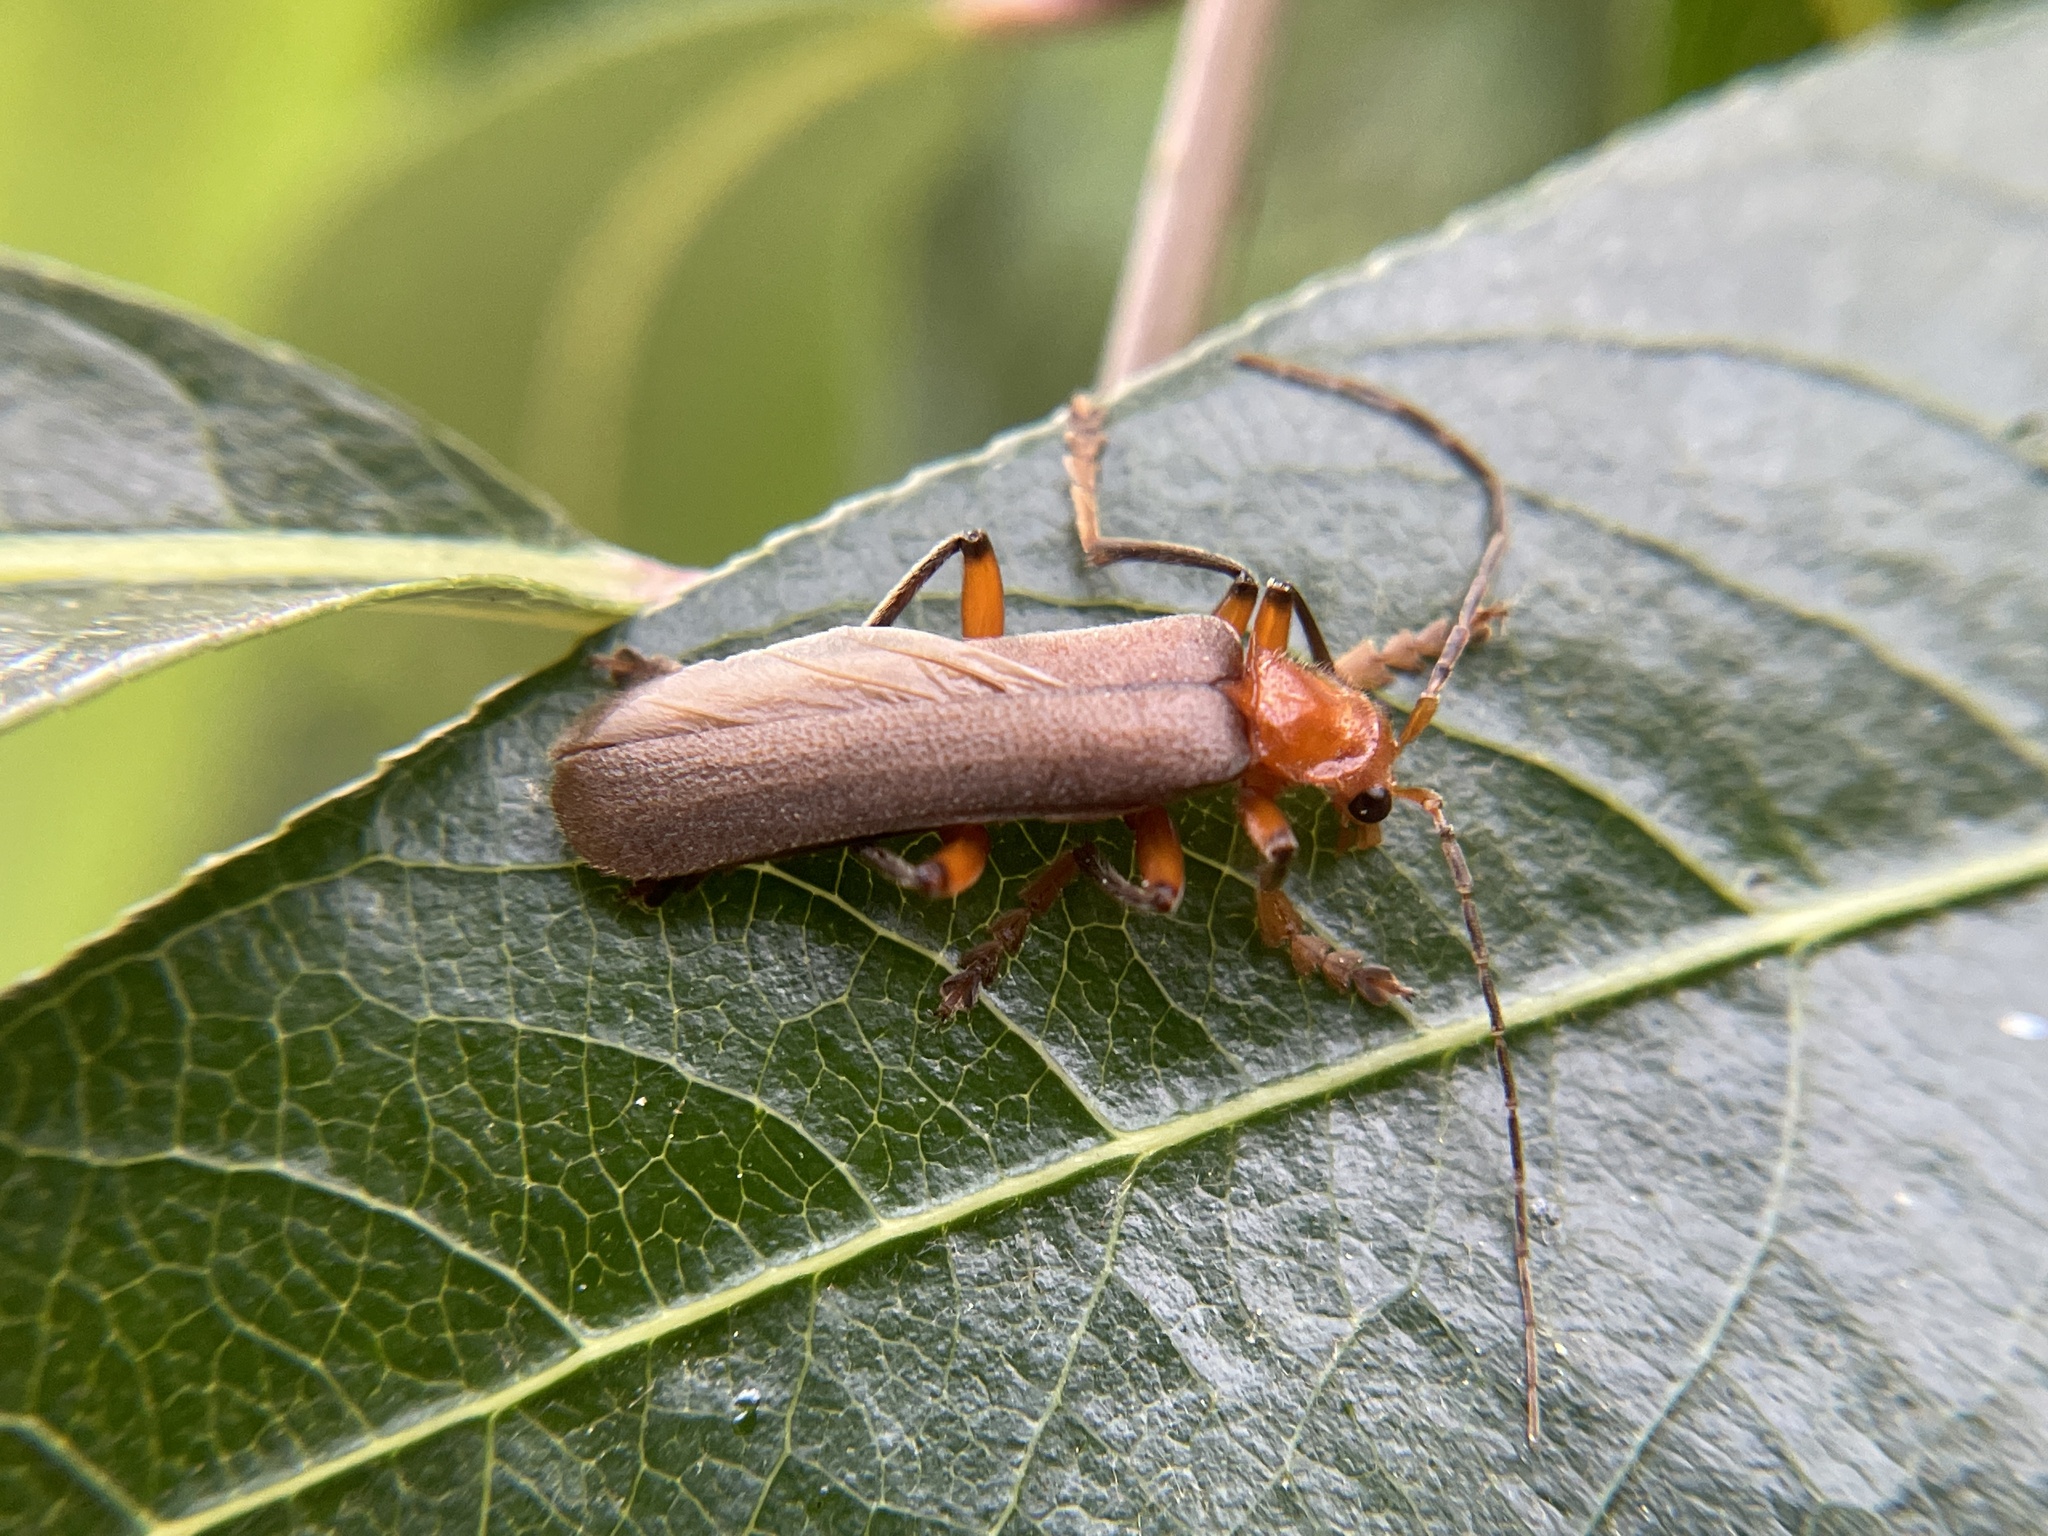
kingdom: Animalia
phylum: Arthropoda
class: Insecta
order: Coleoptera
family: Cantharidae
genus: Pacificanthia
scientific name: Pacificanthia consors
